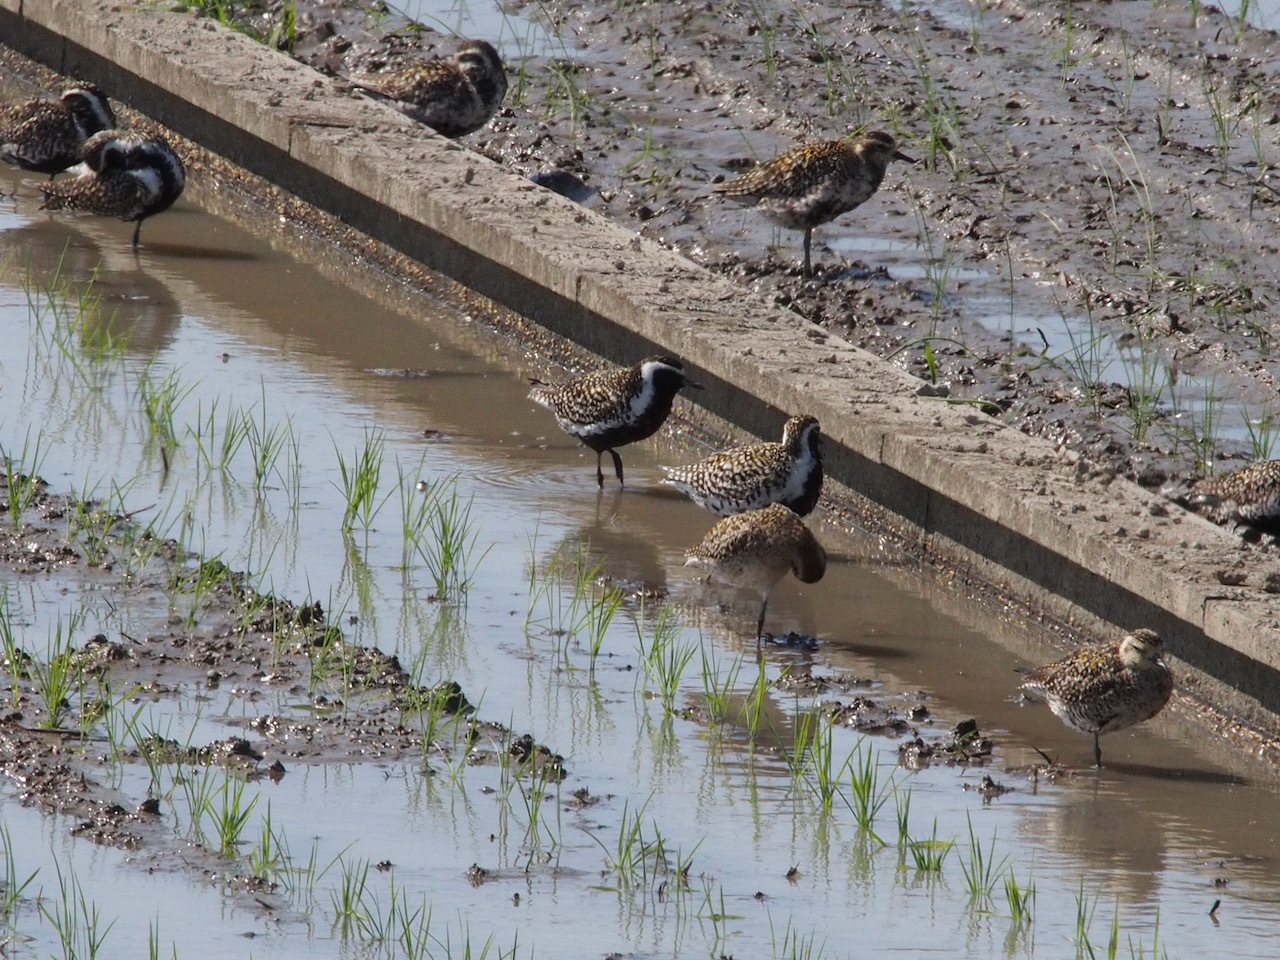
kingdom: Animalia
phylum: Chordata
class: Aves
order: Charadriiformes
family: Charadriidae
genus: Pluvialis
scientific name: Pluvialis fulva
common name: Pacific golden plover
